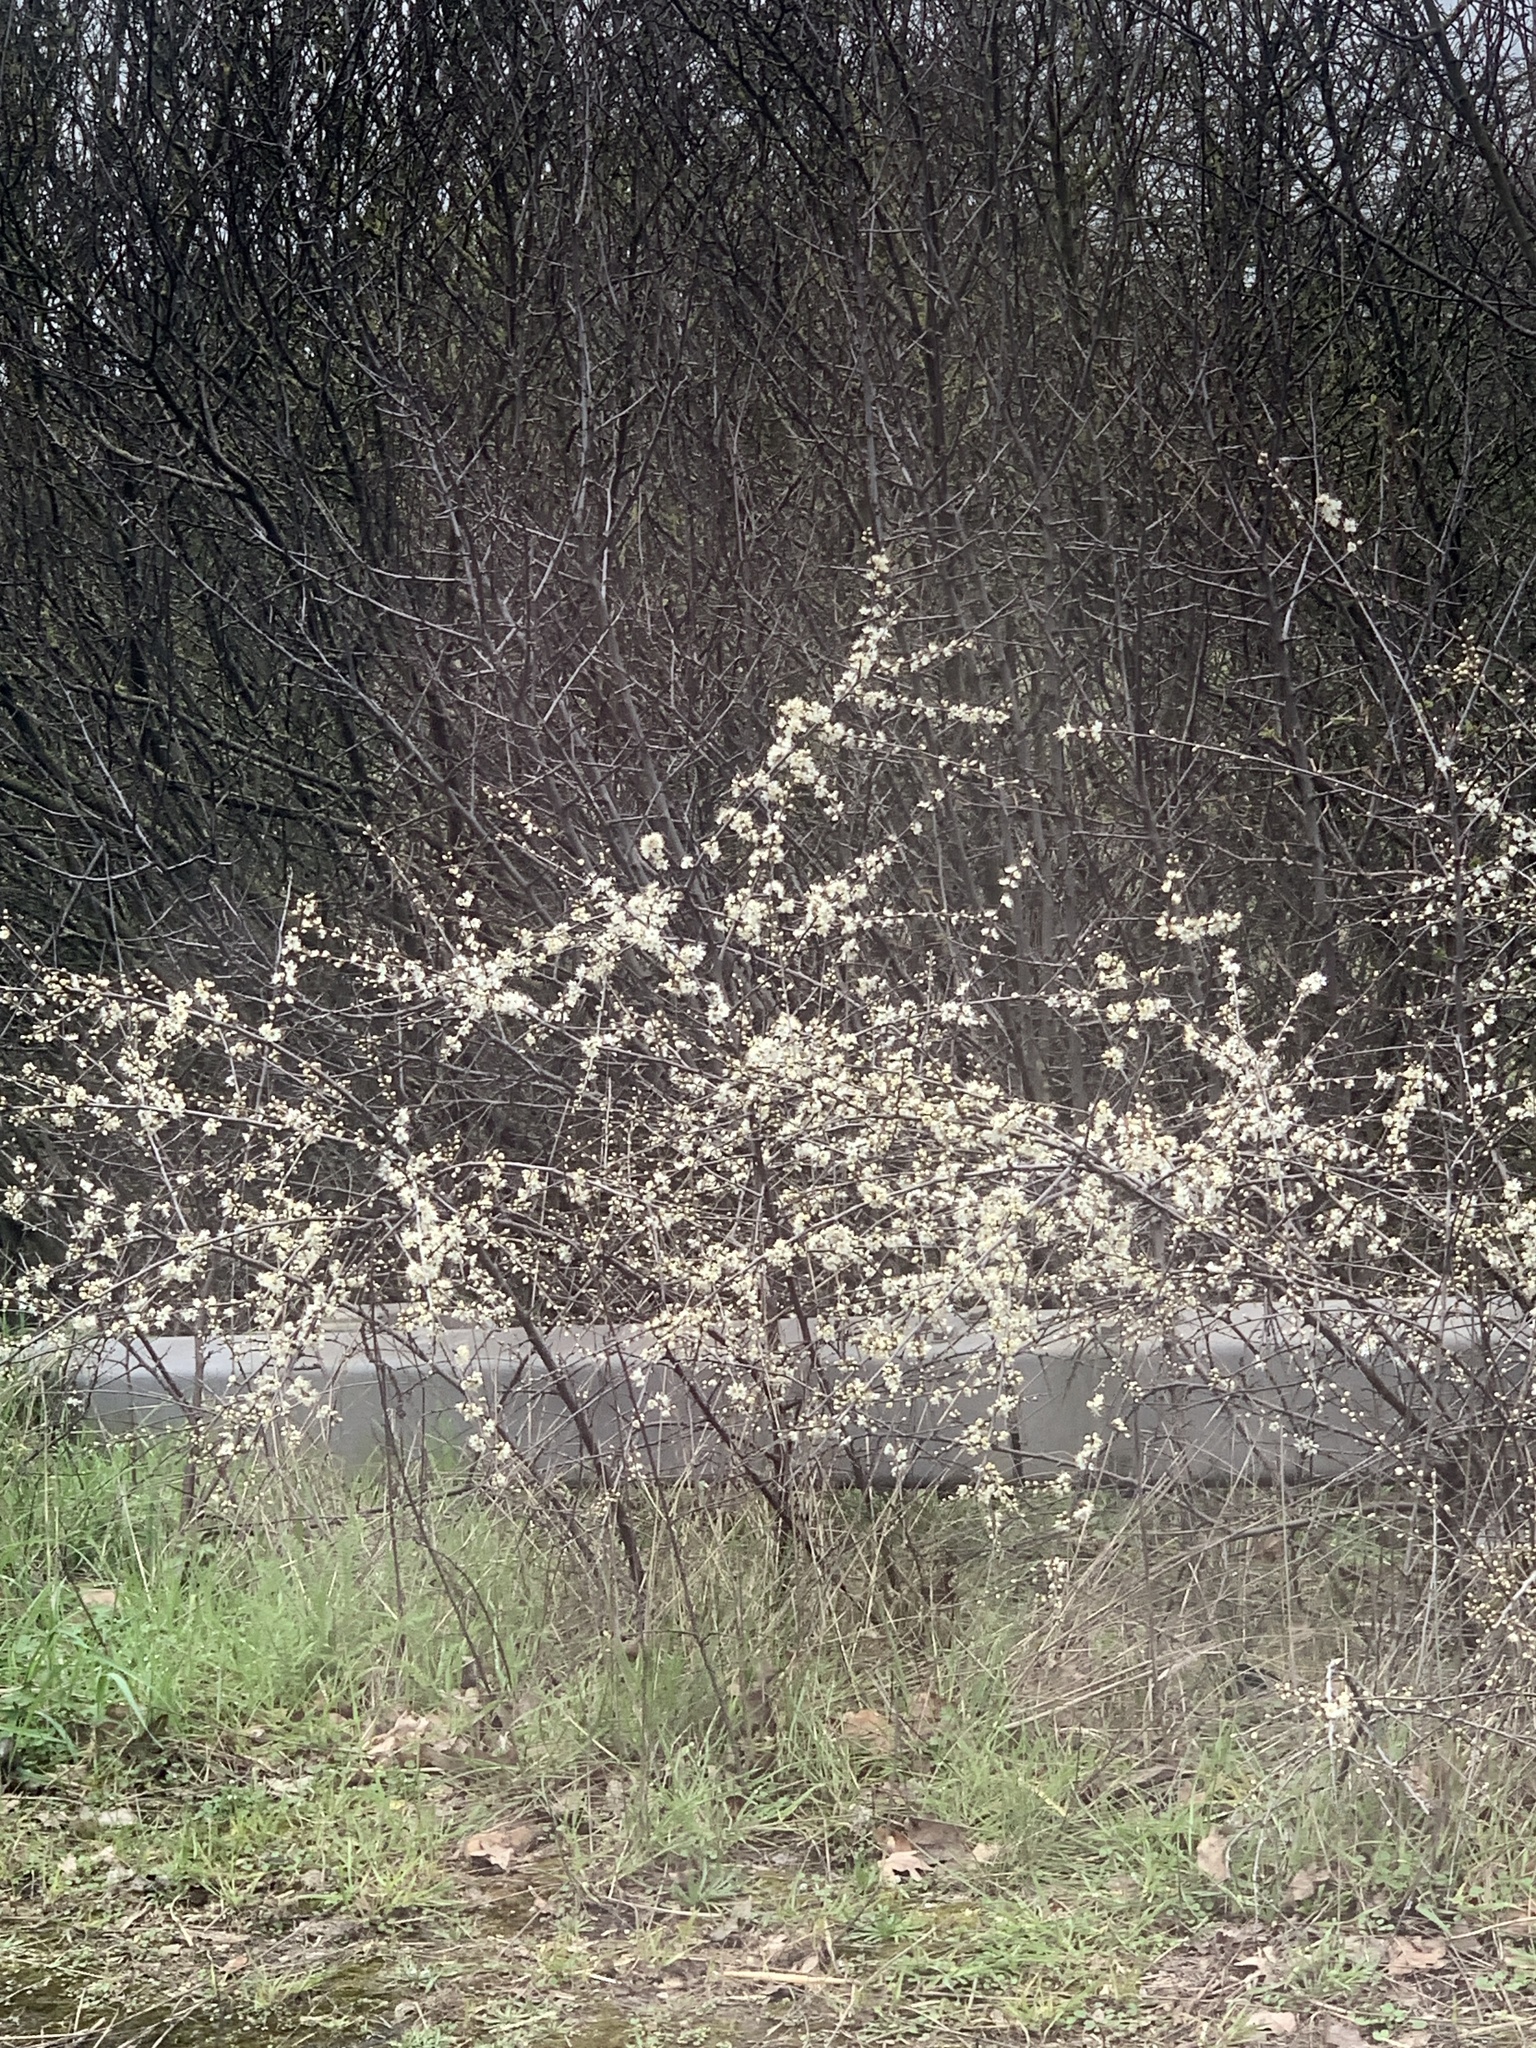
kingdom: Plantae
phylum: Tracheophyta
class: Magnoliopsida
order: Rosales
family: Rosaceae
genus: Prunus
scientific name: Prunus spinosa
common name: Blackthorn
